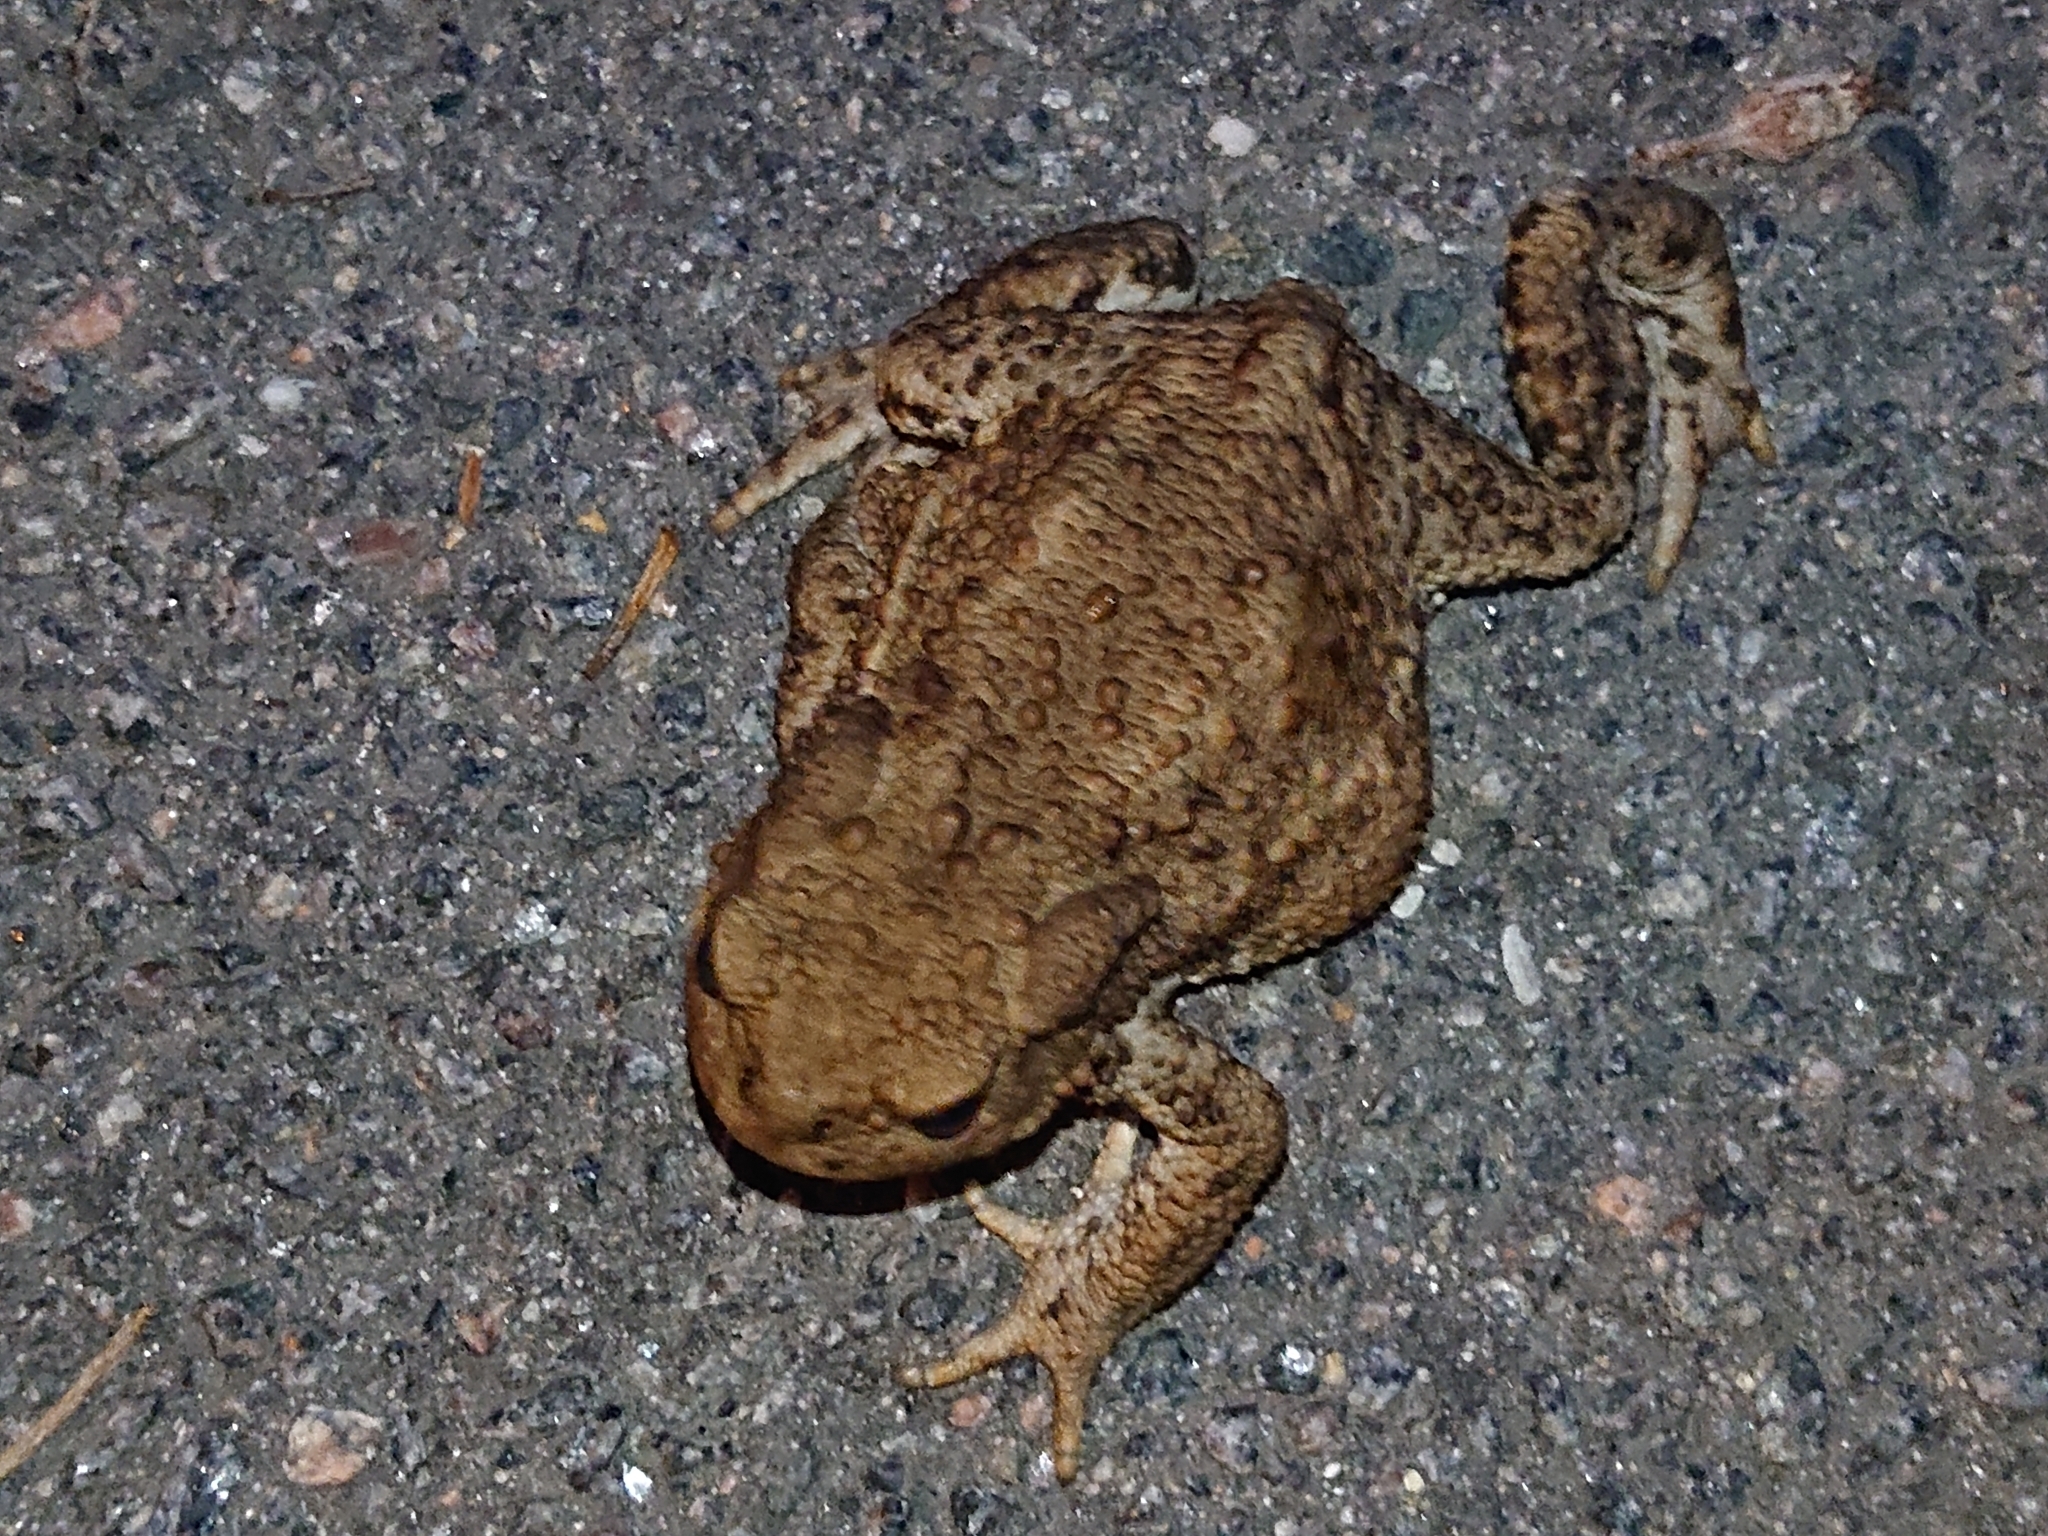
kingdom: Animalia
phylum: Chordata
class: Amphibia
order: Anura
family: Bufonidae
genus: Bufo
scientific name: Bufo bufo
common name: Common toad
